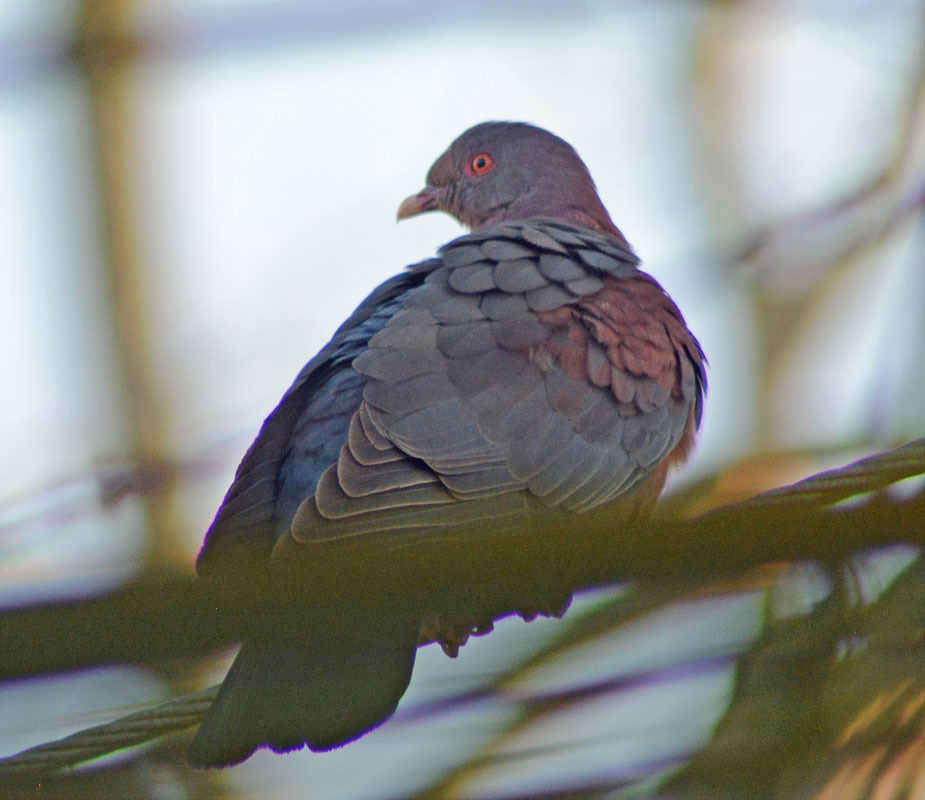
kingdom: Animalia
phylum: Chordata
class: Aves
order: Columbiformes
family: Columbidae
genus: Patagioenas
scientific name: Patagioenas flavirostris
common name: Red-billed pigeon
